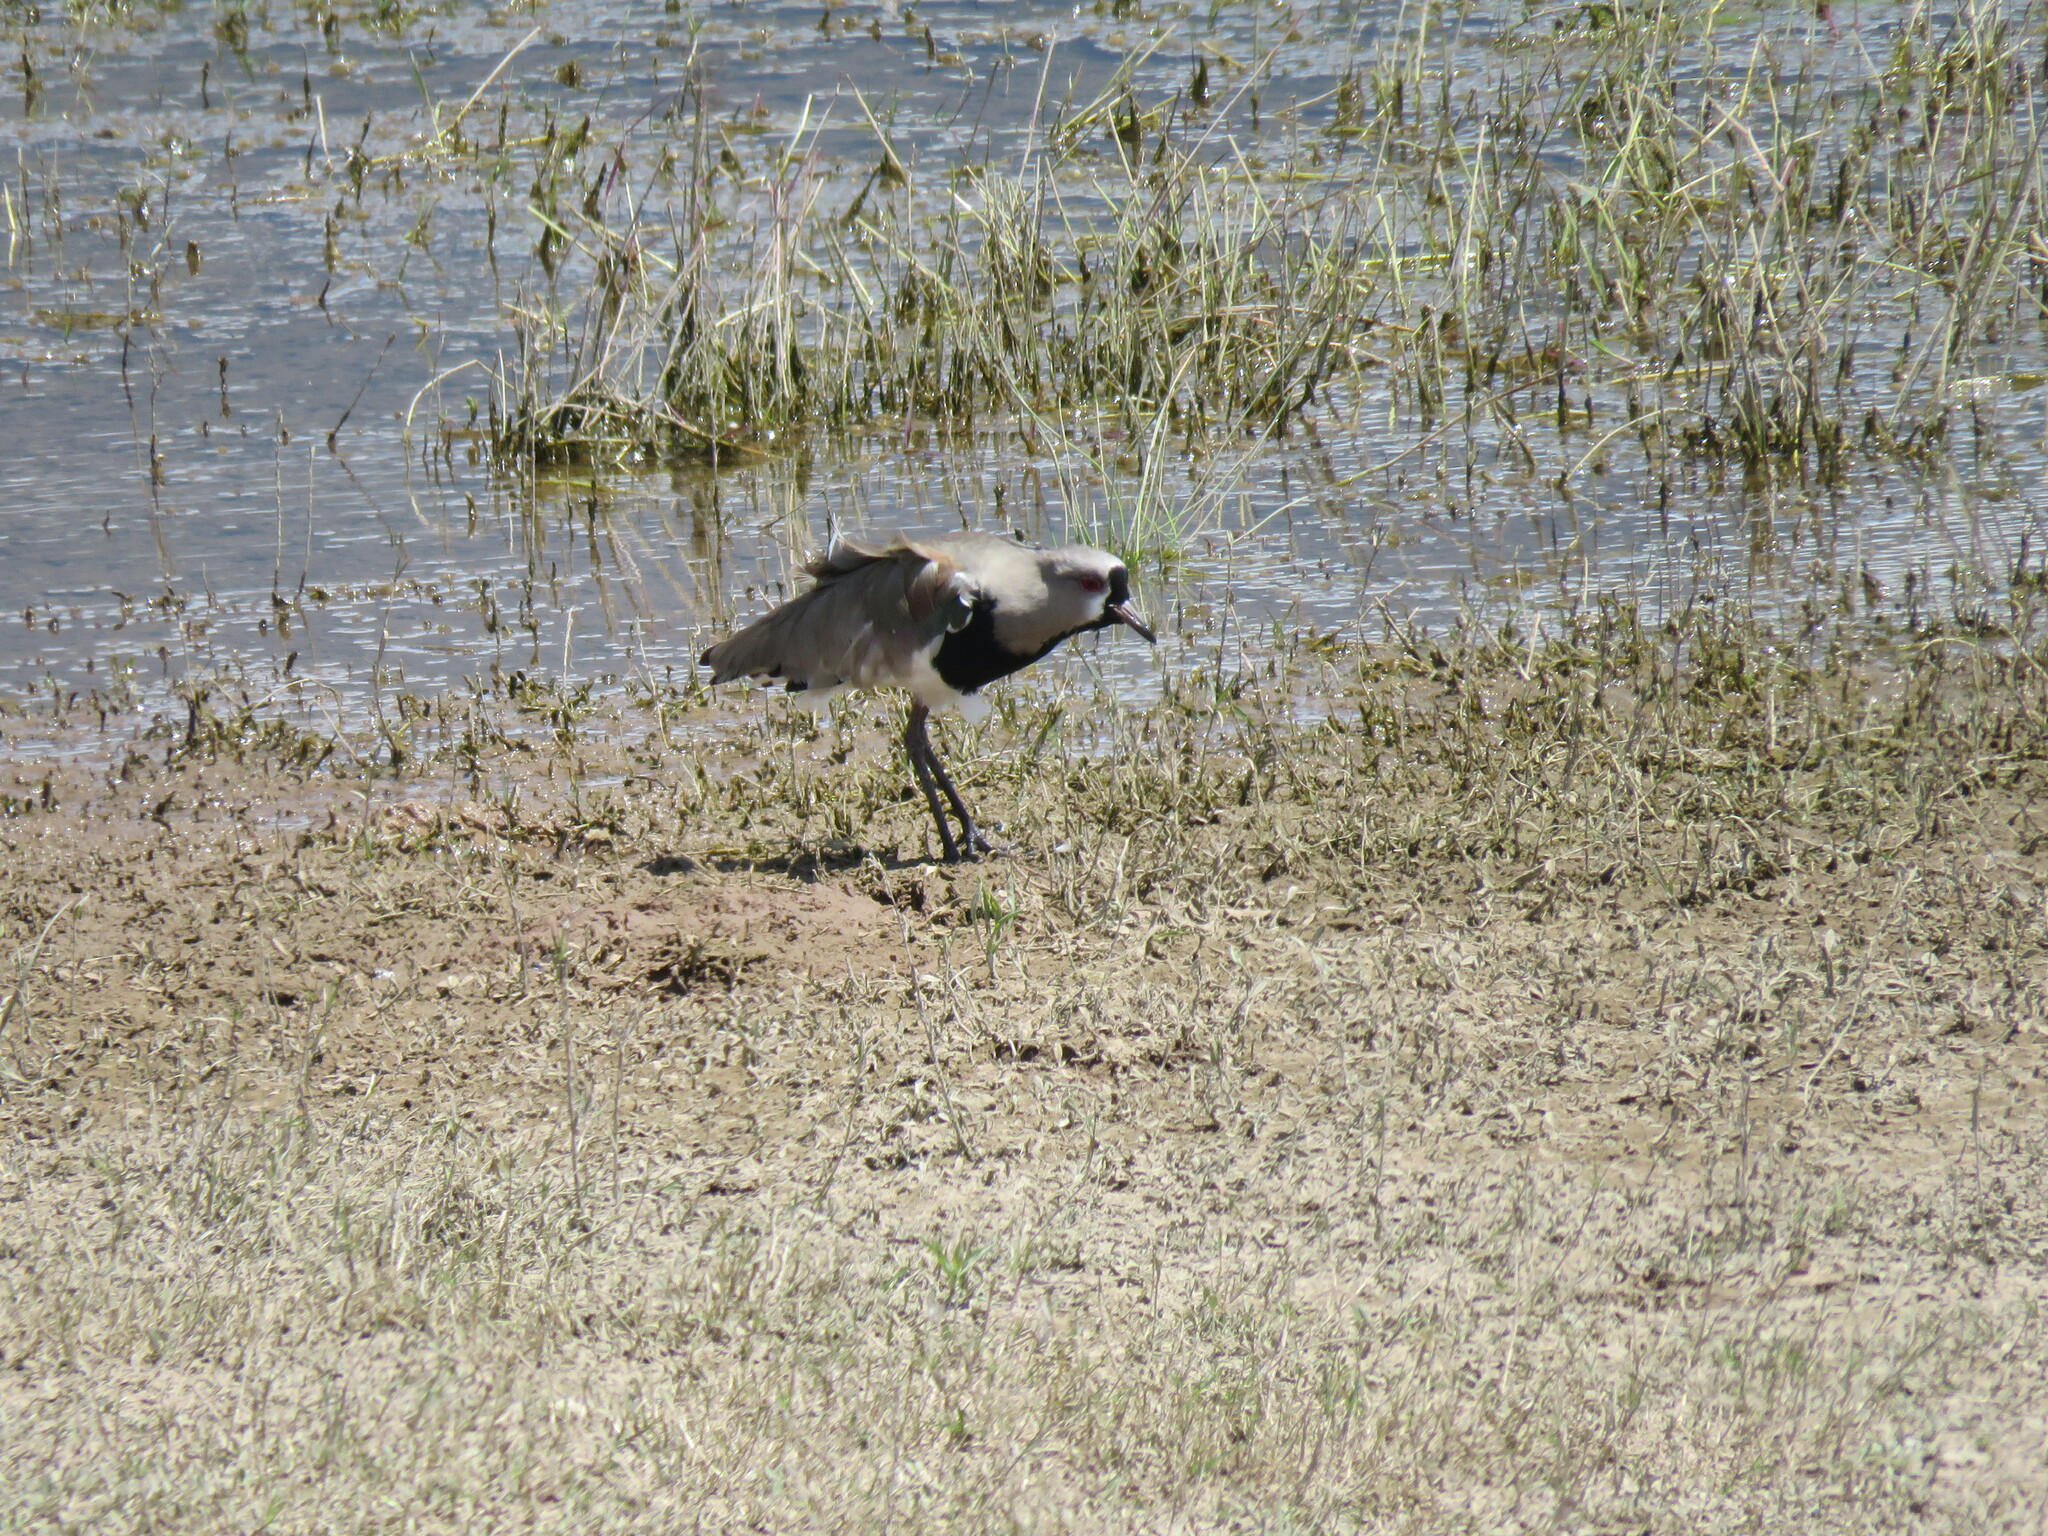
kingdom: Animalia
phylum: Chordata
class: Aves
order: Charadriiformes
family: Charadriidae
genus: Vanellus
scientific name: Vanellus chilensis
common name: Southern lapwing
